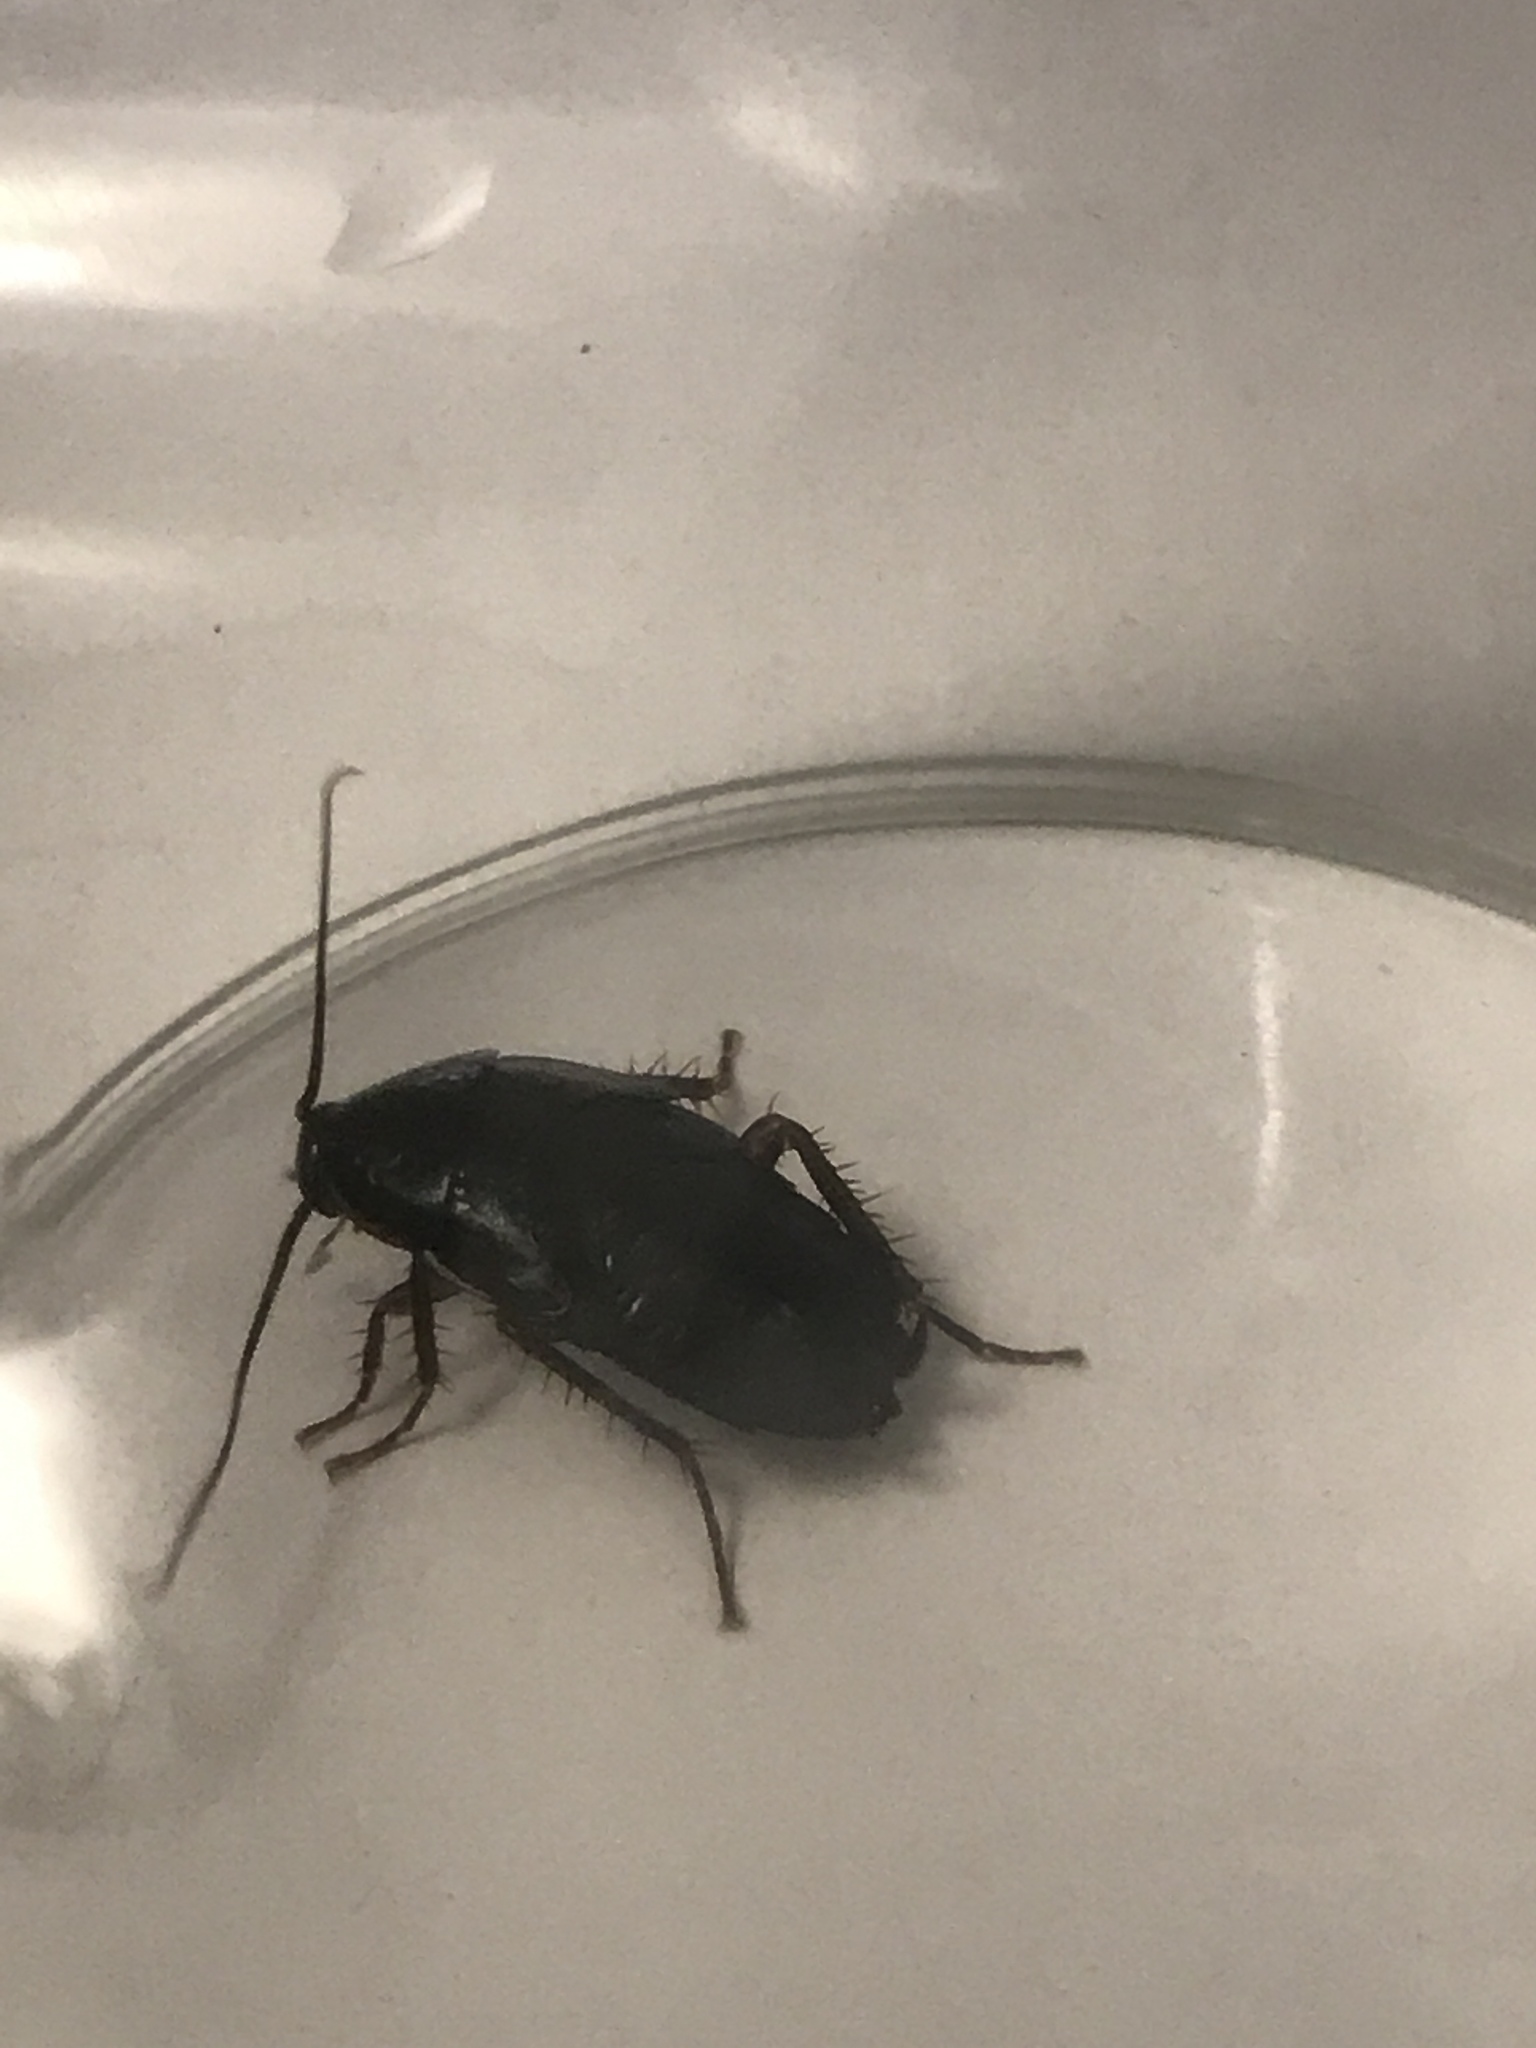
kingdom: Animalia
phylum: Arthropoda
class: Insecta
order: Blattodea
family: Blattidae
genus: Blatta
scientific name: Blatta orientalis
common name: Oriental cockroach
